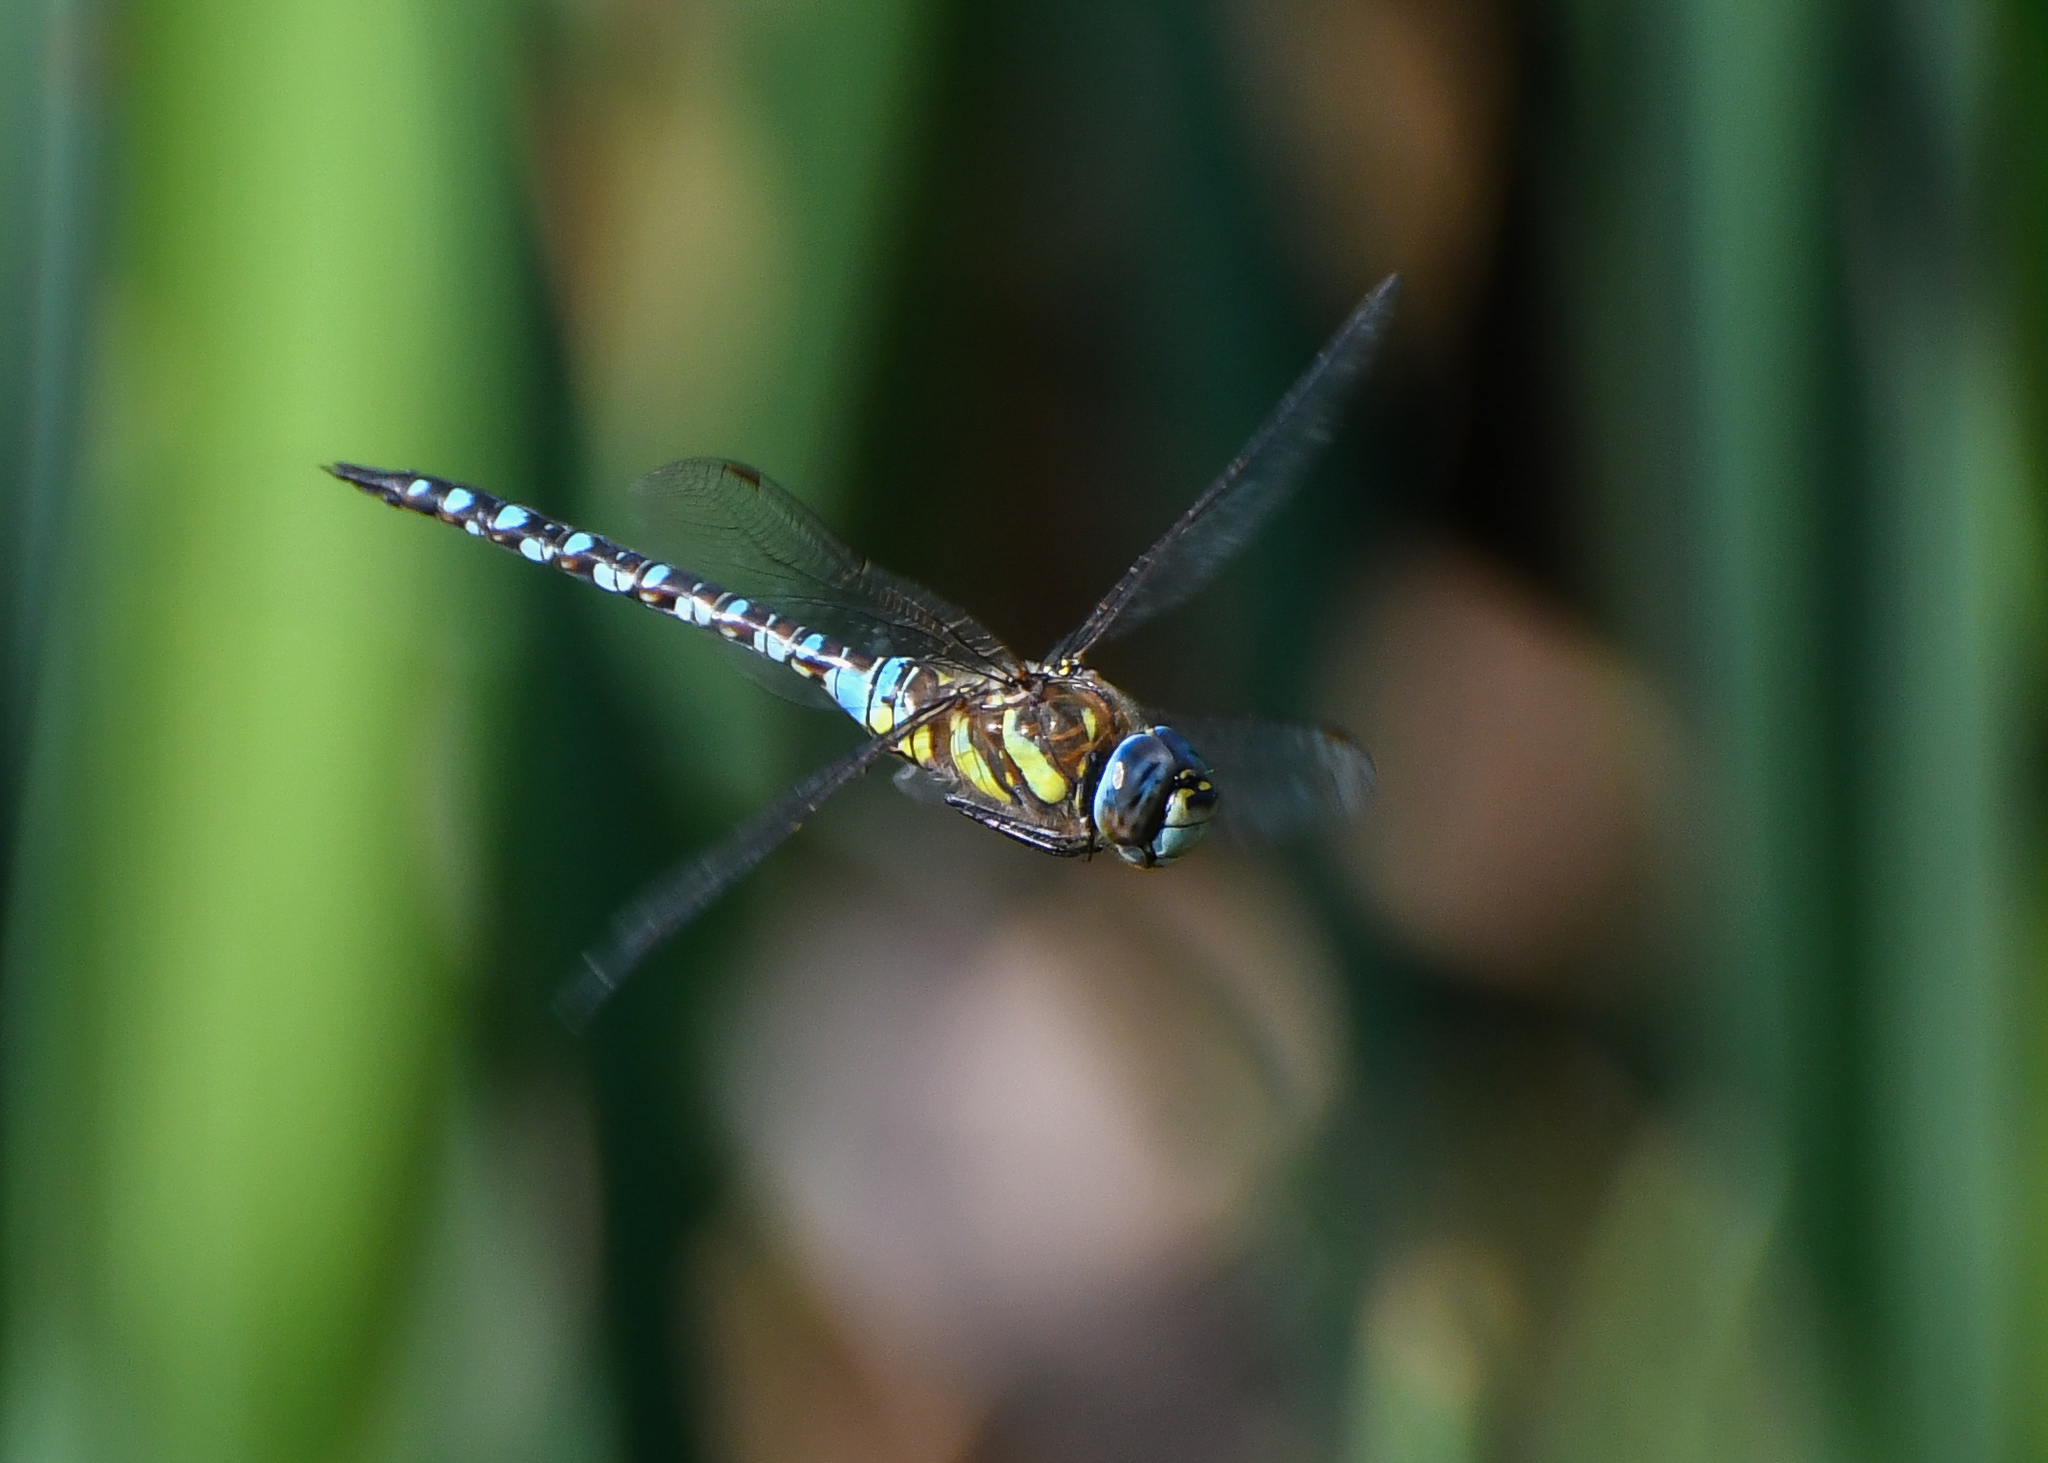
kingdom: Animalia
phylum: Arthropoda
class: Insecta
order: Odonata
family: Aeshnidae
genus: Aeshna
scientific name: Aeshna mixta
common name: Migrant hawker
